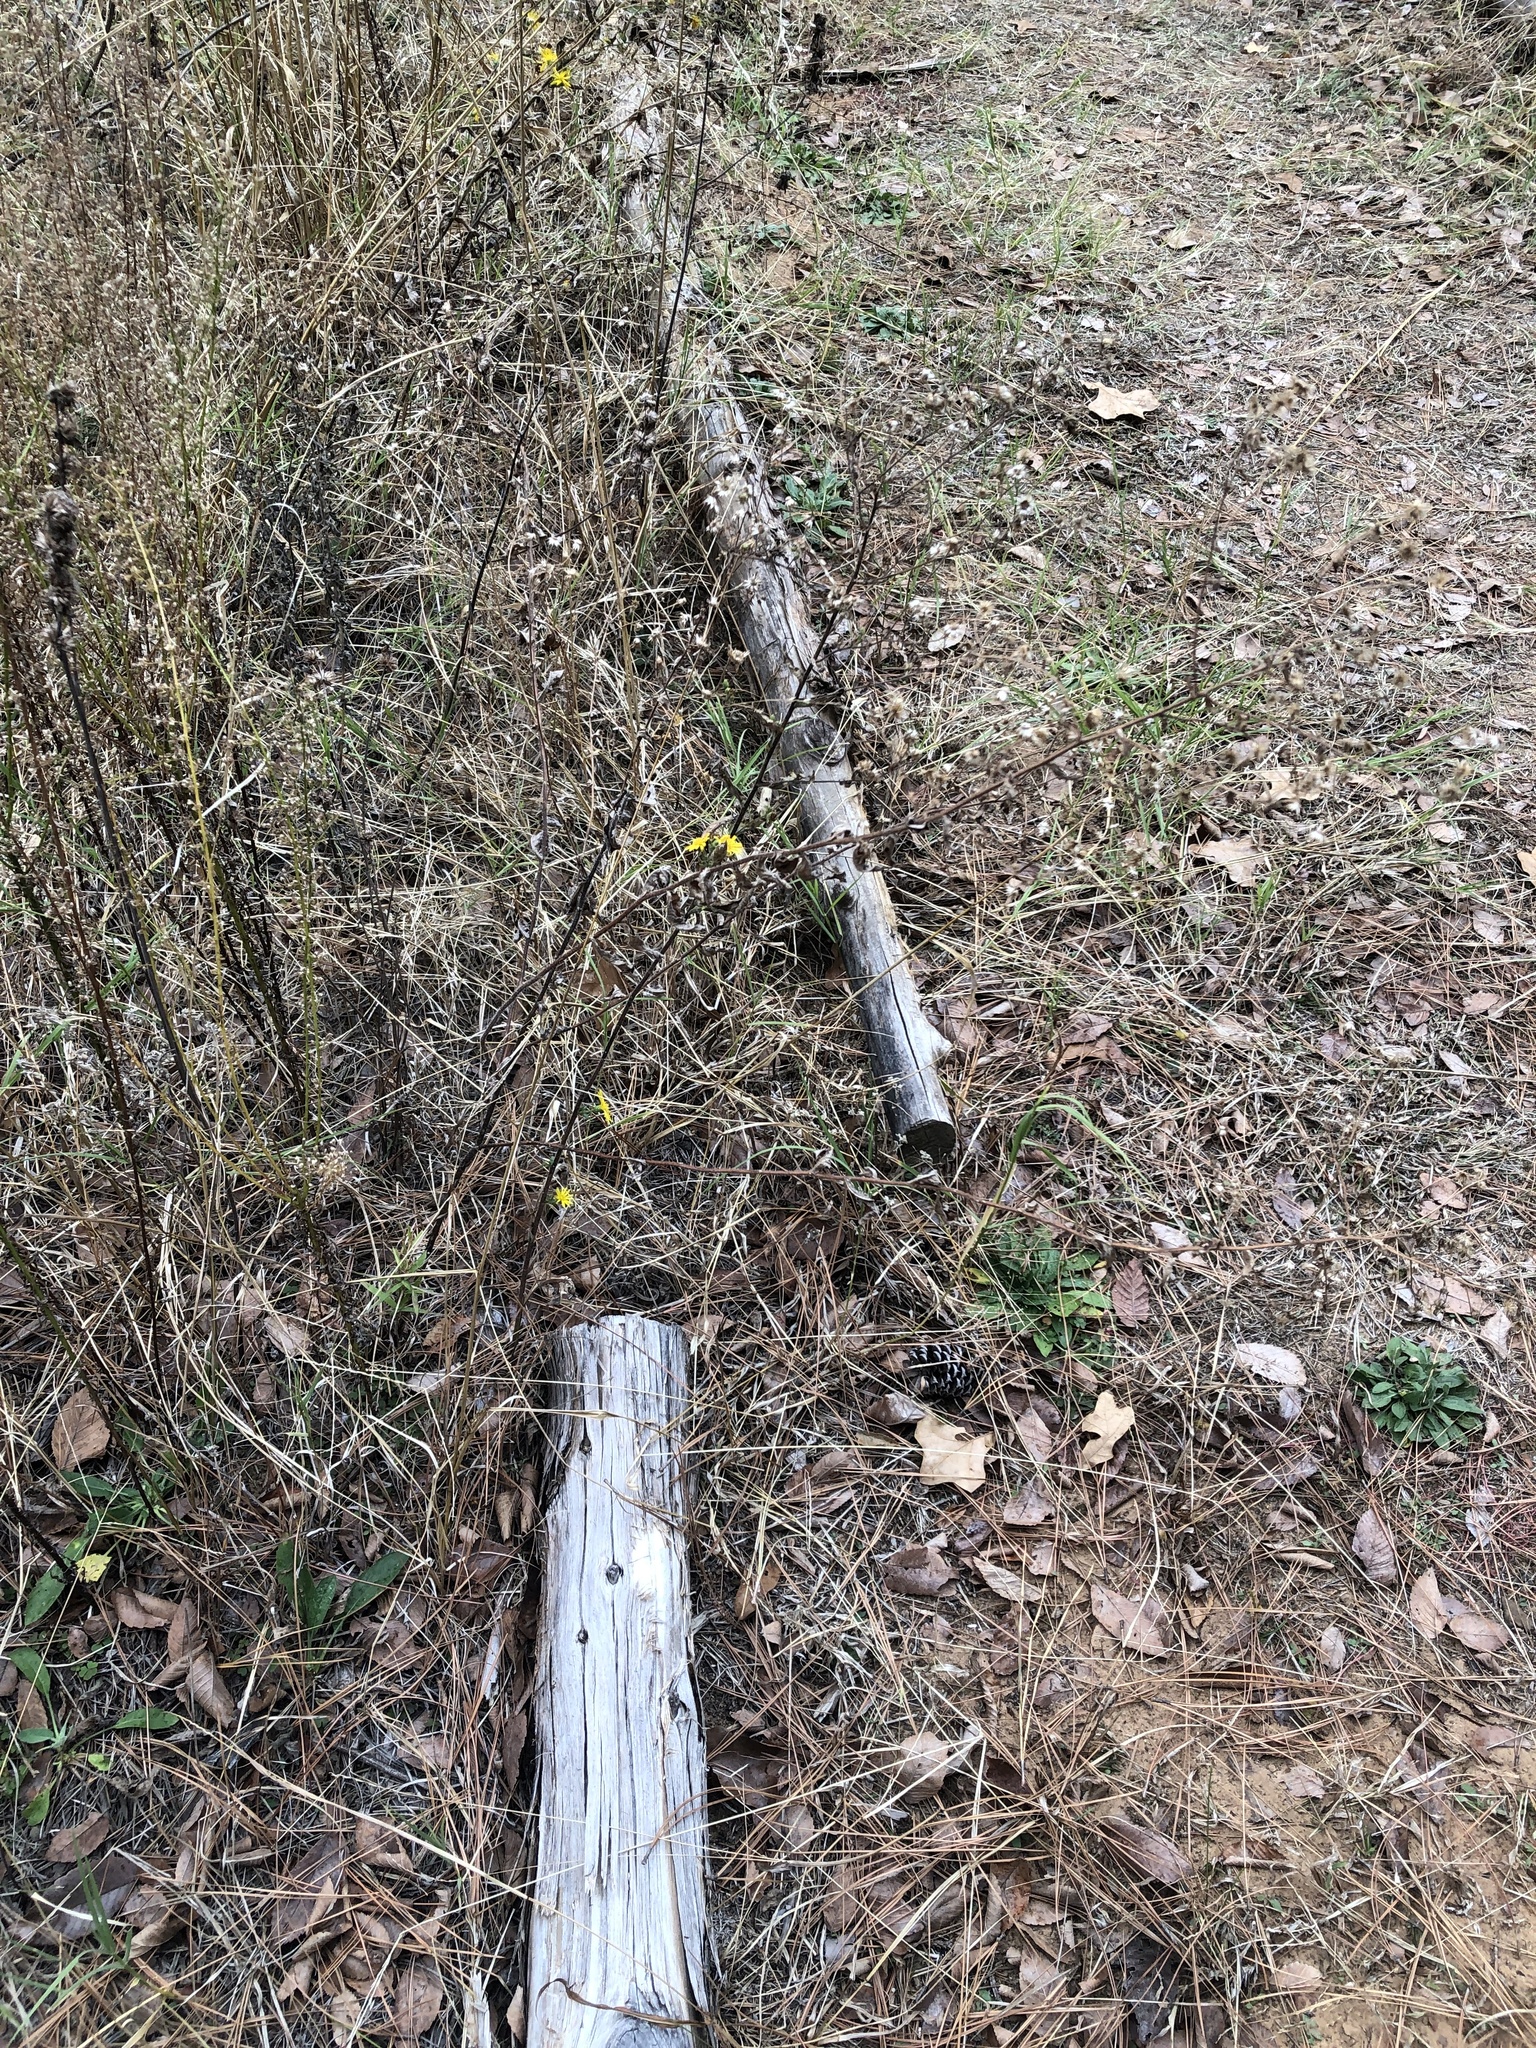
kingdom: Plantae
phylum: Tracheophyta
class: Magnoliopsida
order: Asterales
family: Asteraceae
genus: Heterotheca
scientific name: Heterotheca subaxillaris
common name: Camphorweed
